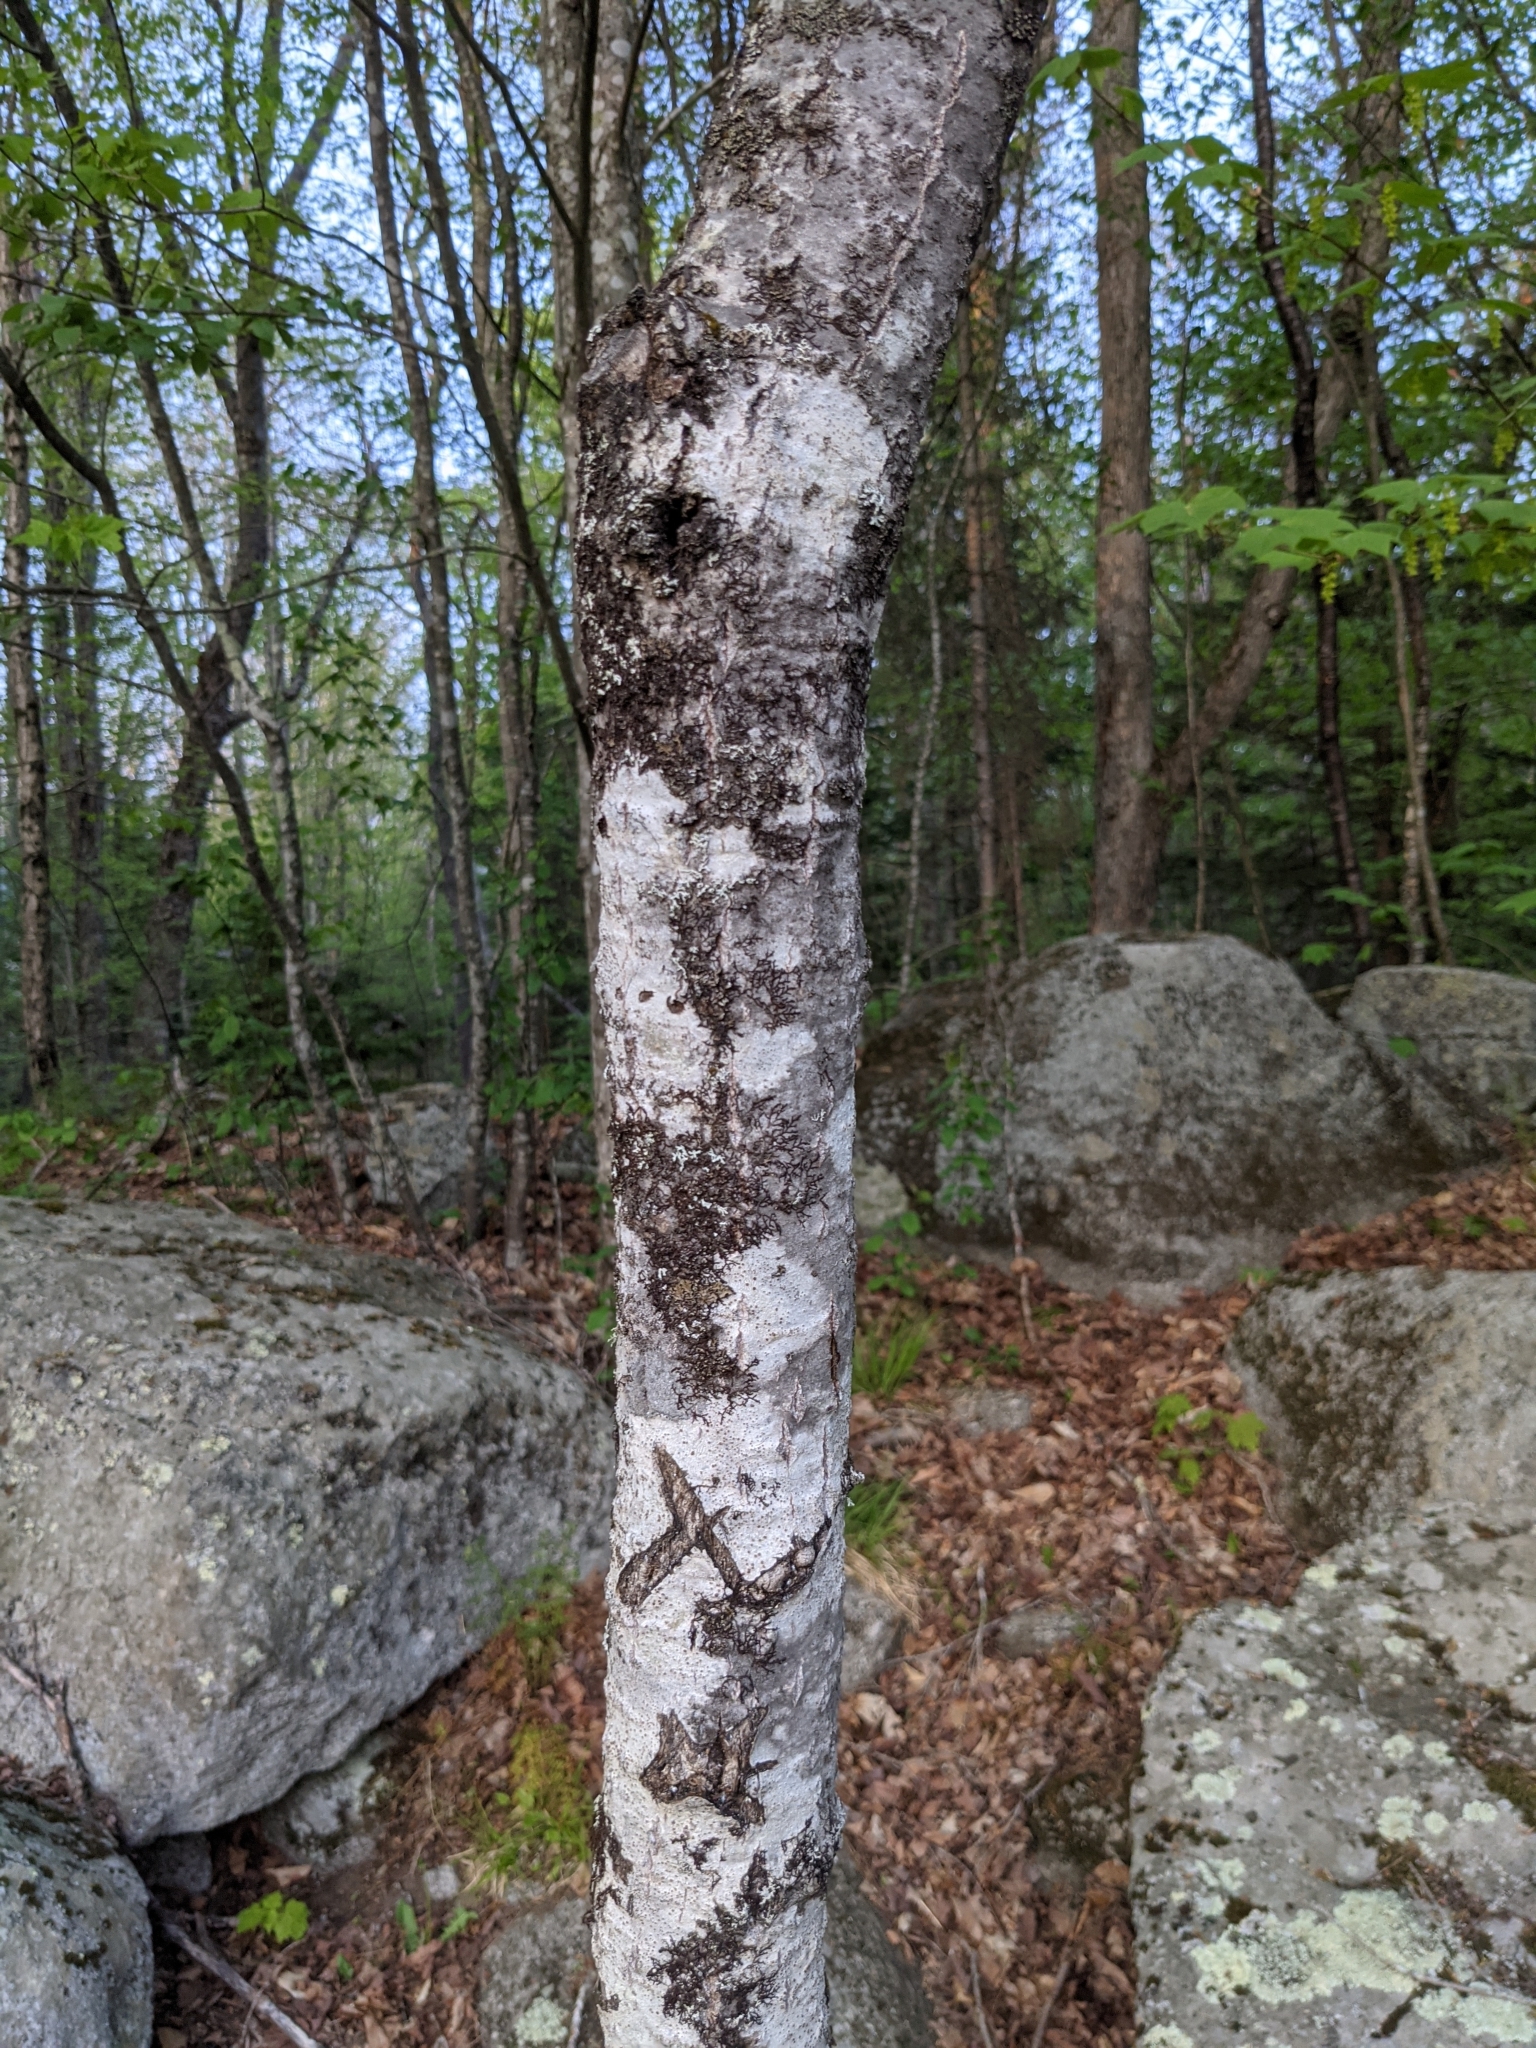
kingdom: Plantae
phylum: Tracheophyta
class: Magnoliopsida
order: Malpighiales
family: Salicaceae
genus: Populus
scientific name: Populus tremuloides
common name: Quaking aspen
